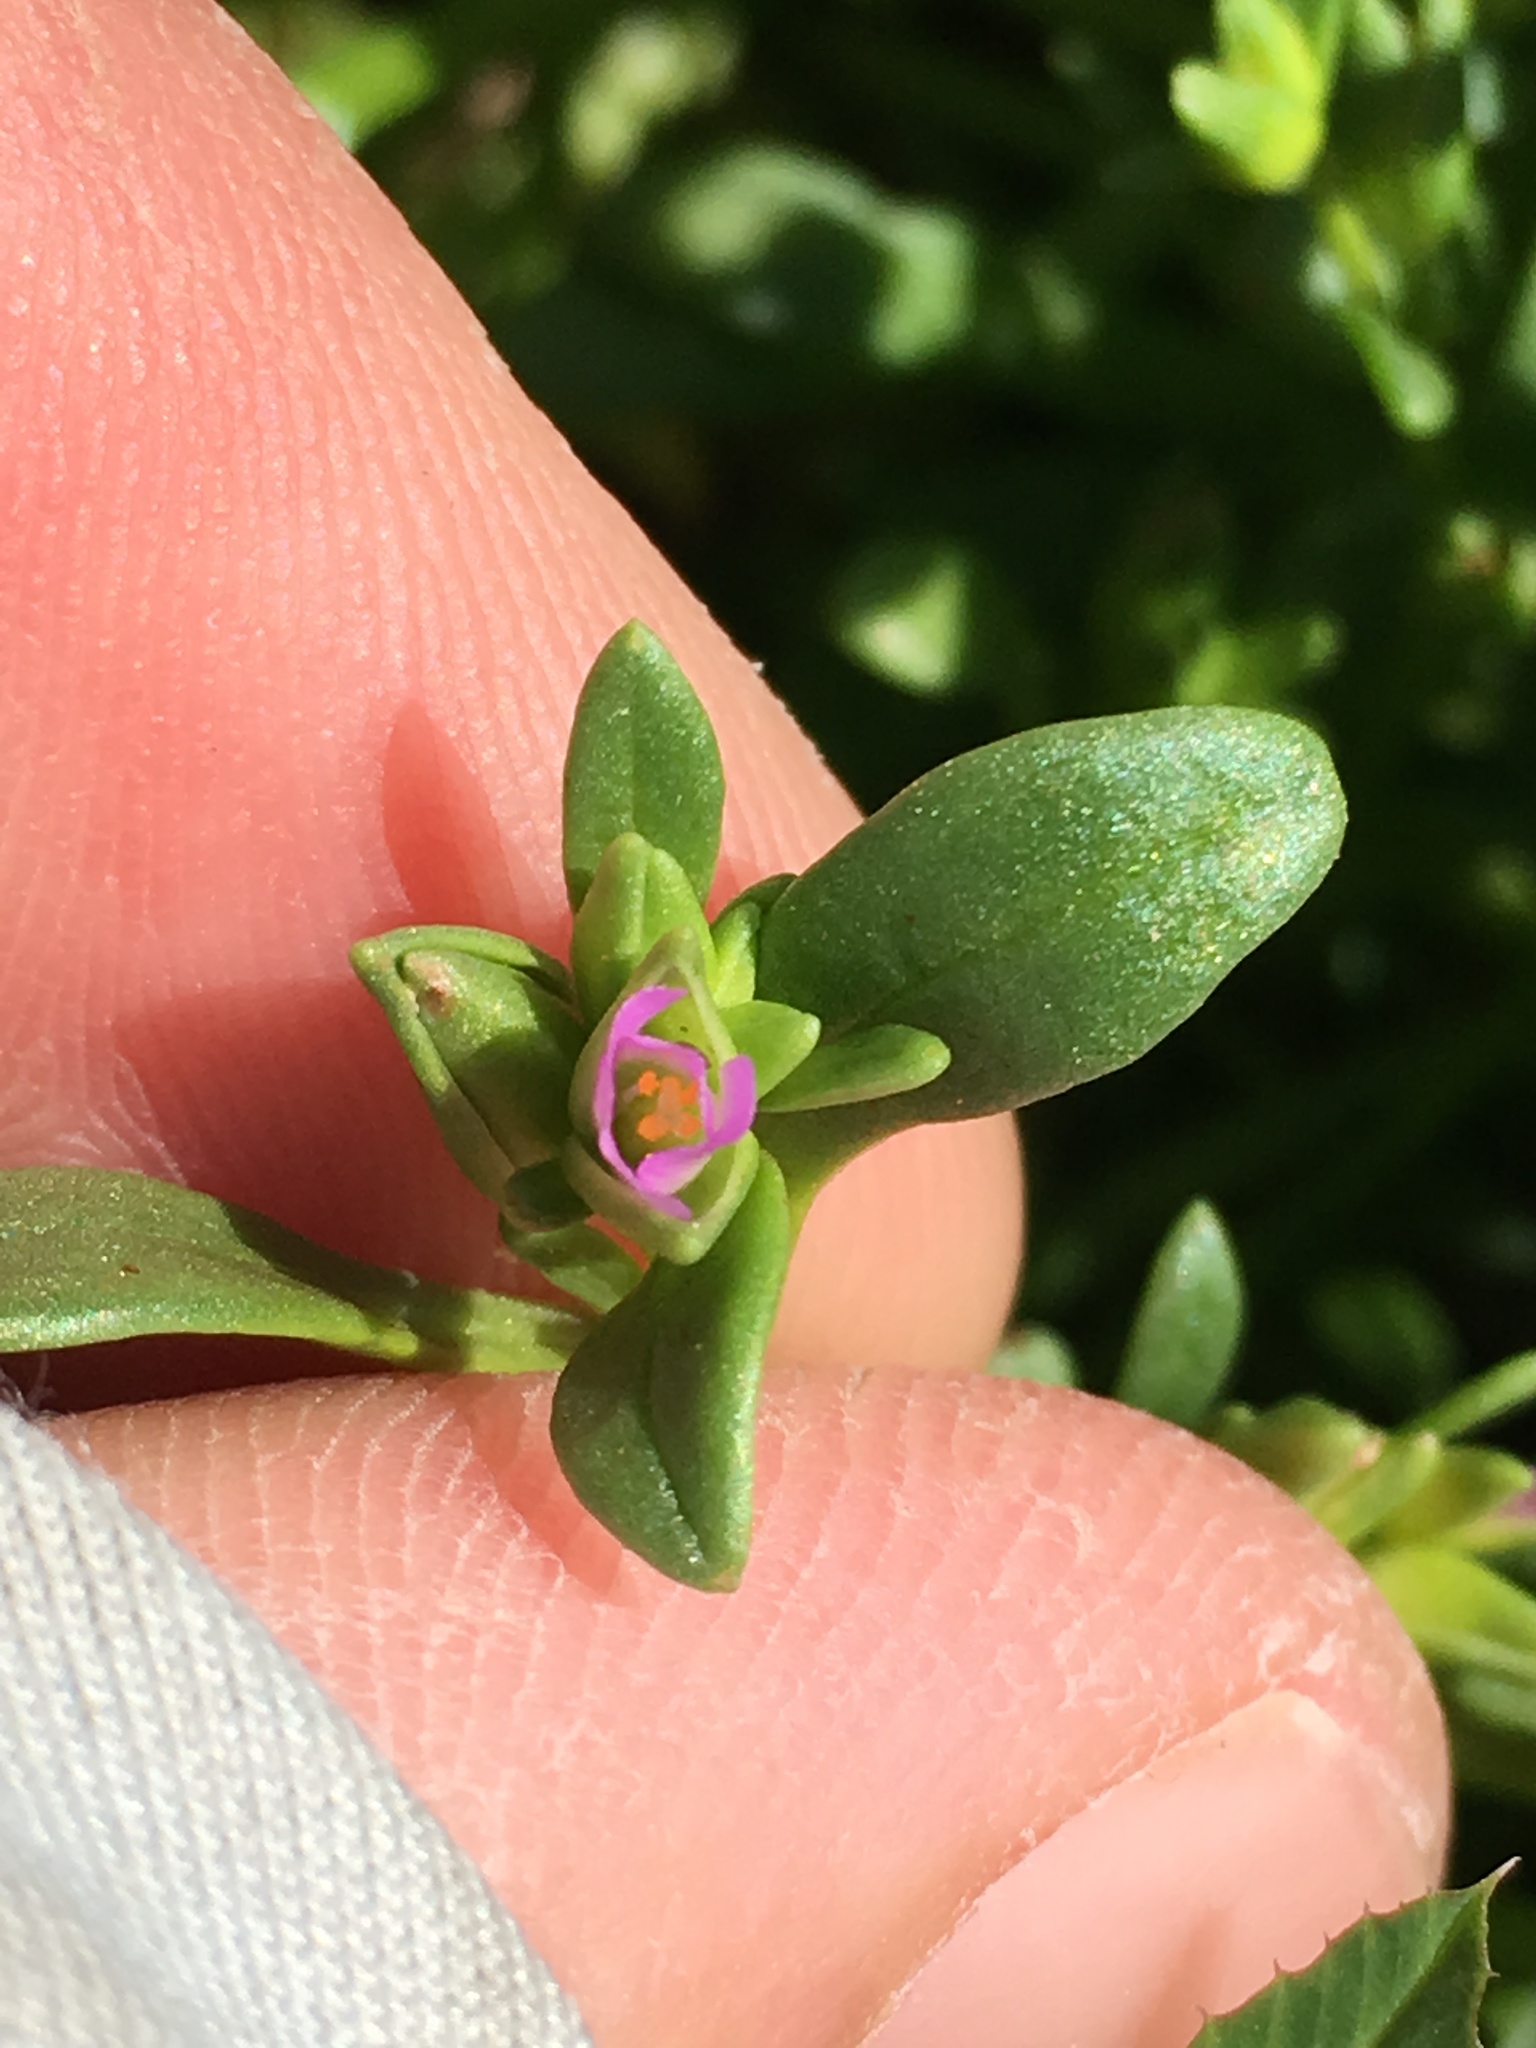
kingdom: Plantae
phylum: Tracheophyta
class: Magnoliopsida
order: Caryophyllales
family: Montiaceae
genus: Calandrinia
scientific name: Calandrinia menziesii
